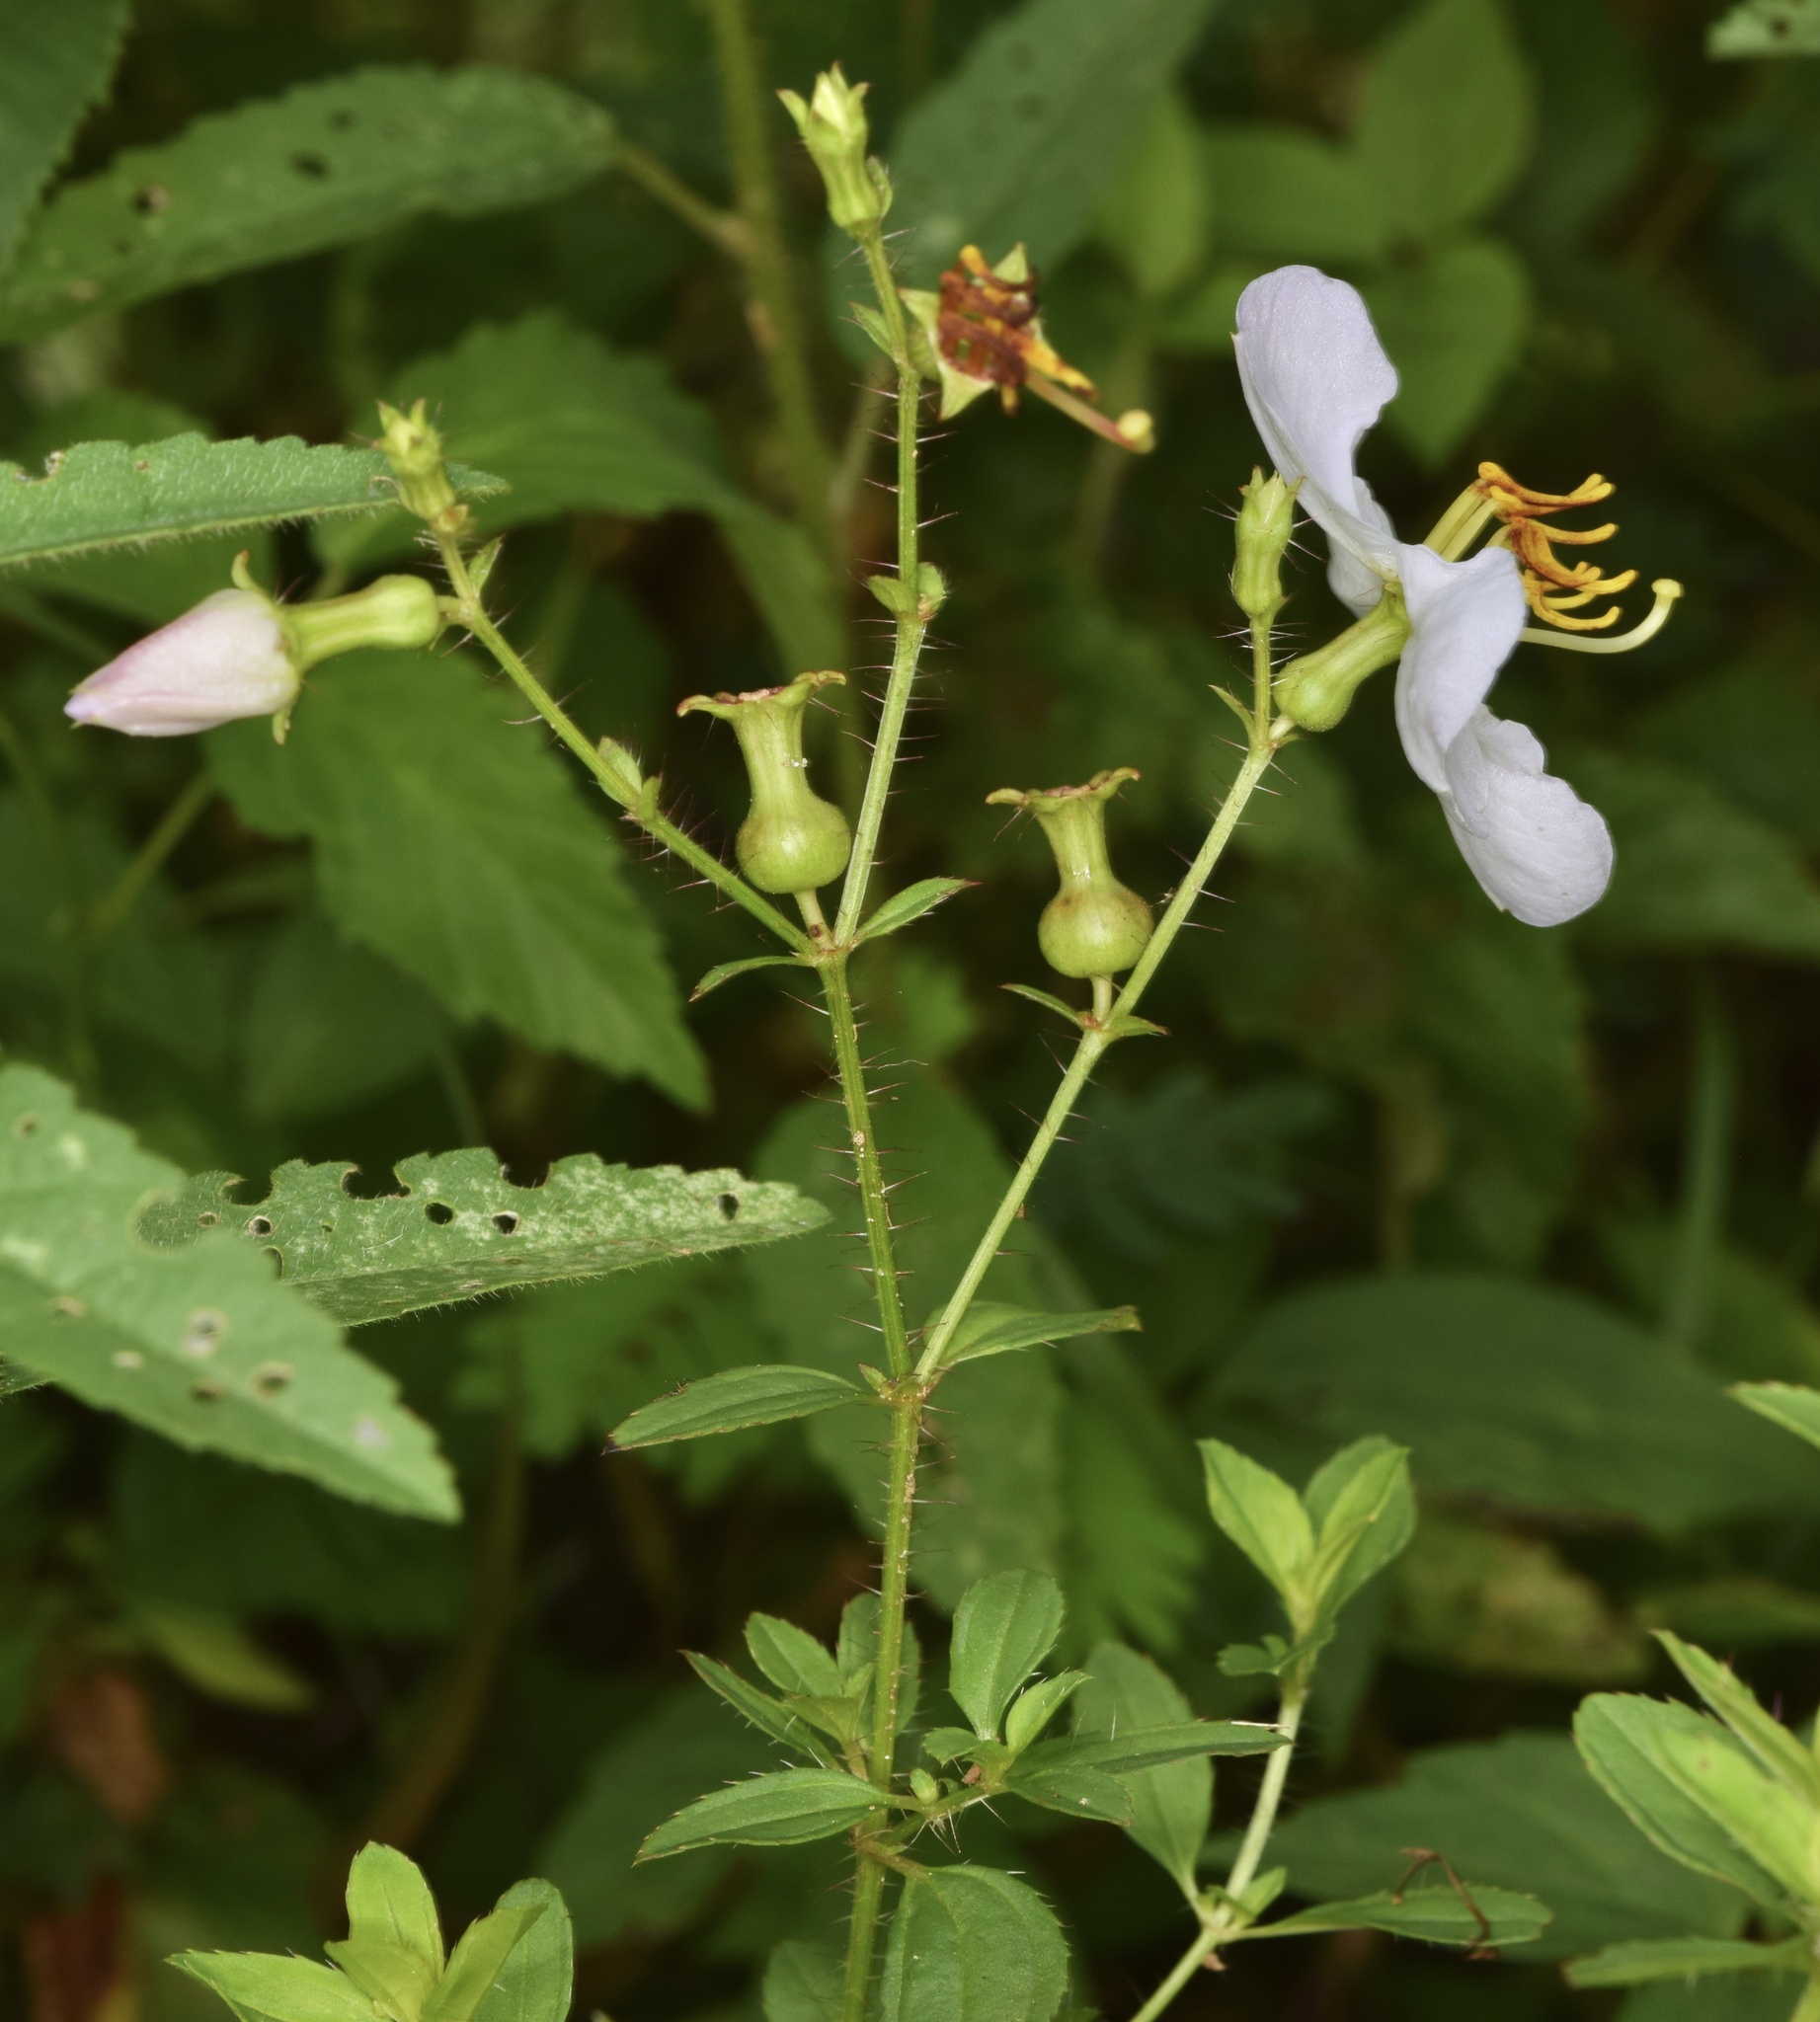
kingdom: Plantae
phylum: Tracheophyta
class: Magnoliopsida
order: Myrtales
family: Melastomataceae
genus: Rhexia
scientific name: Rhexia mariana
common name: Dull meadow-pitcher
